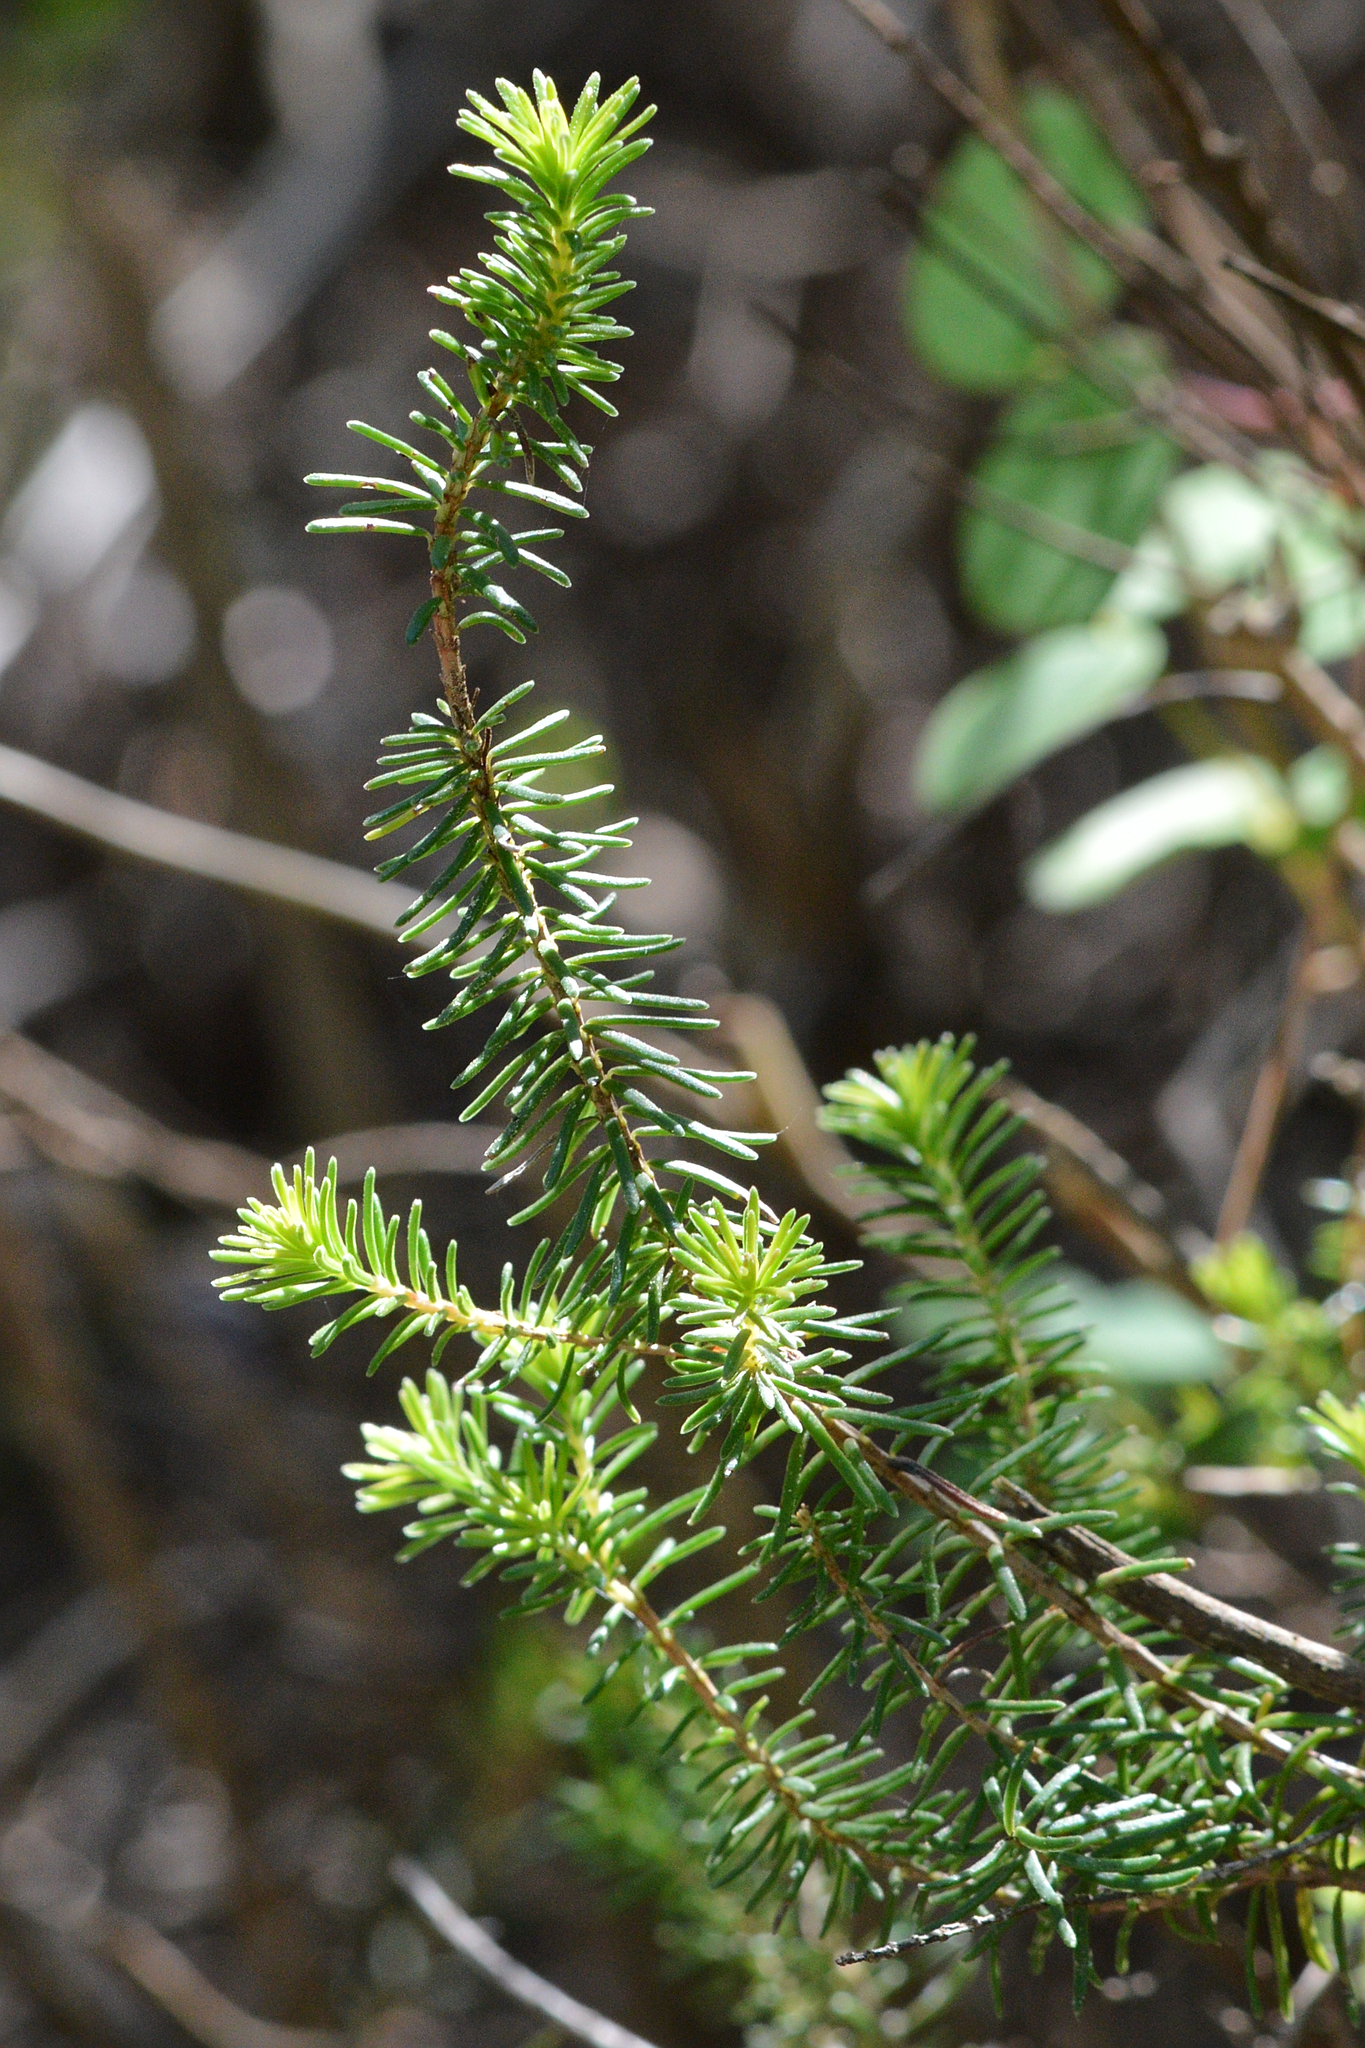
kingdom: Plantae
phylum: Tracheophyta
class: Magnoliopsida
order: Ericales
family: Ericaceae
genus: Erica
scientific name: Erica multiflora
